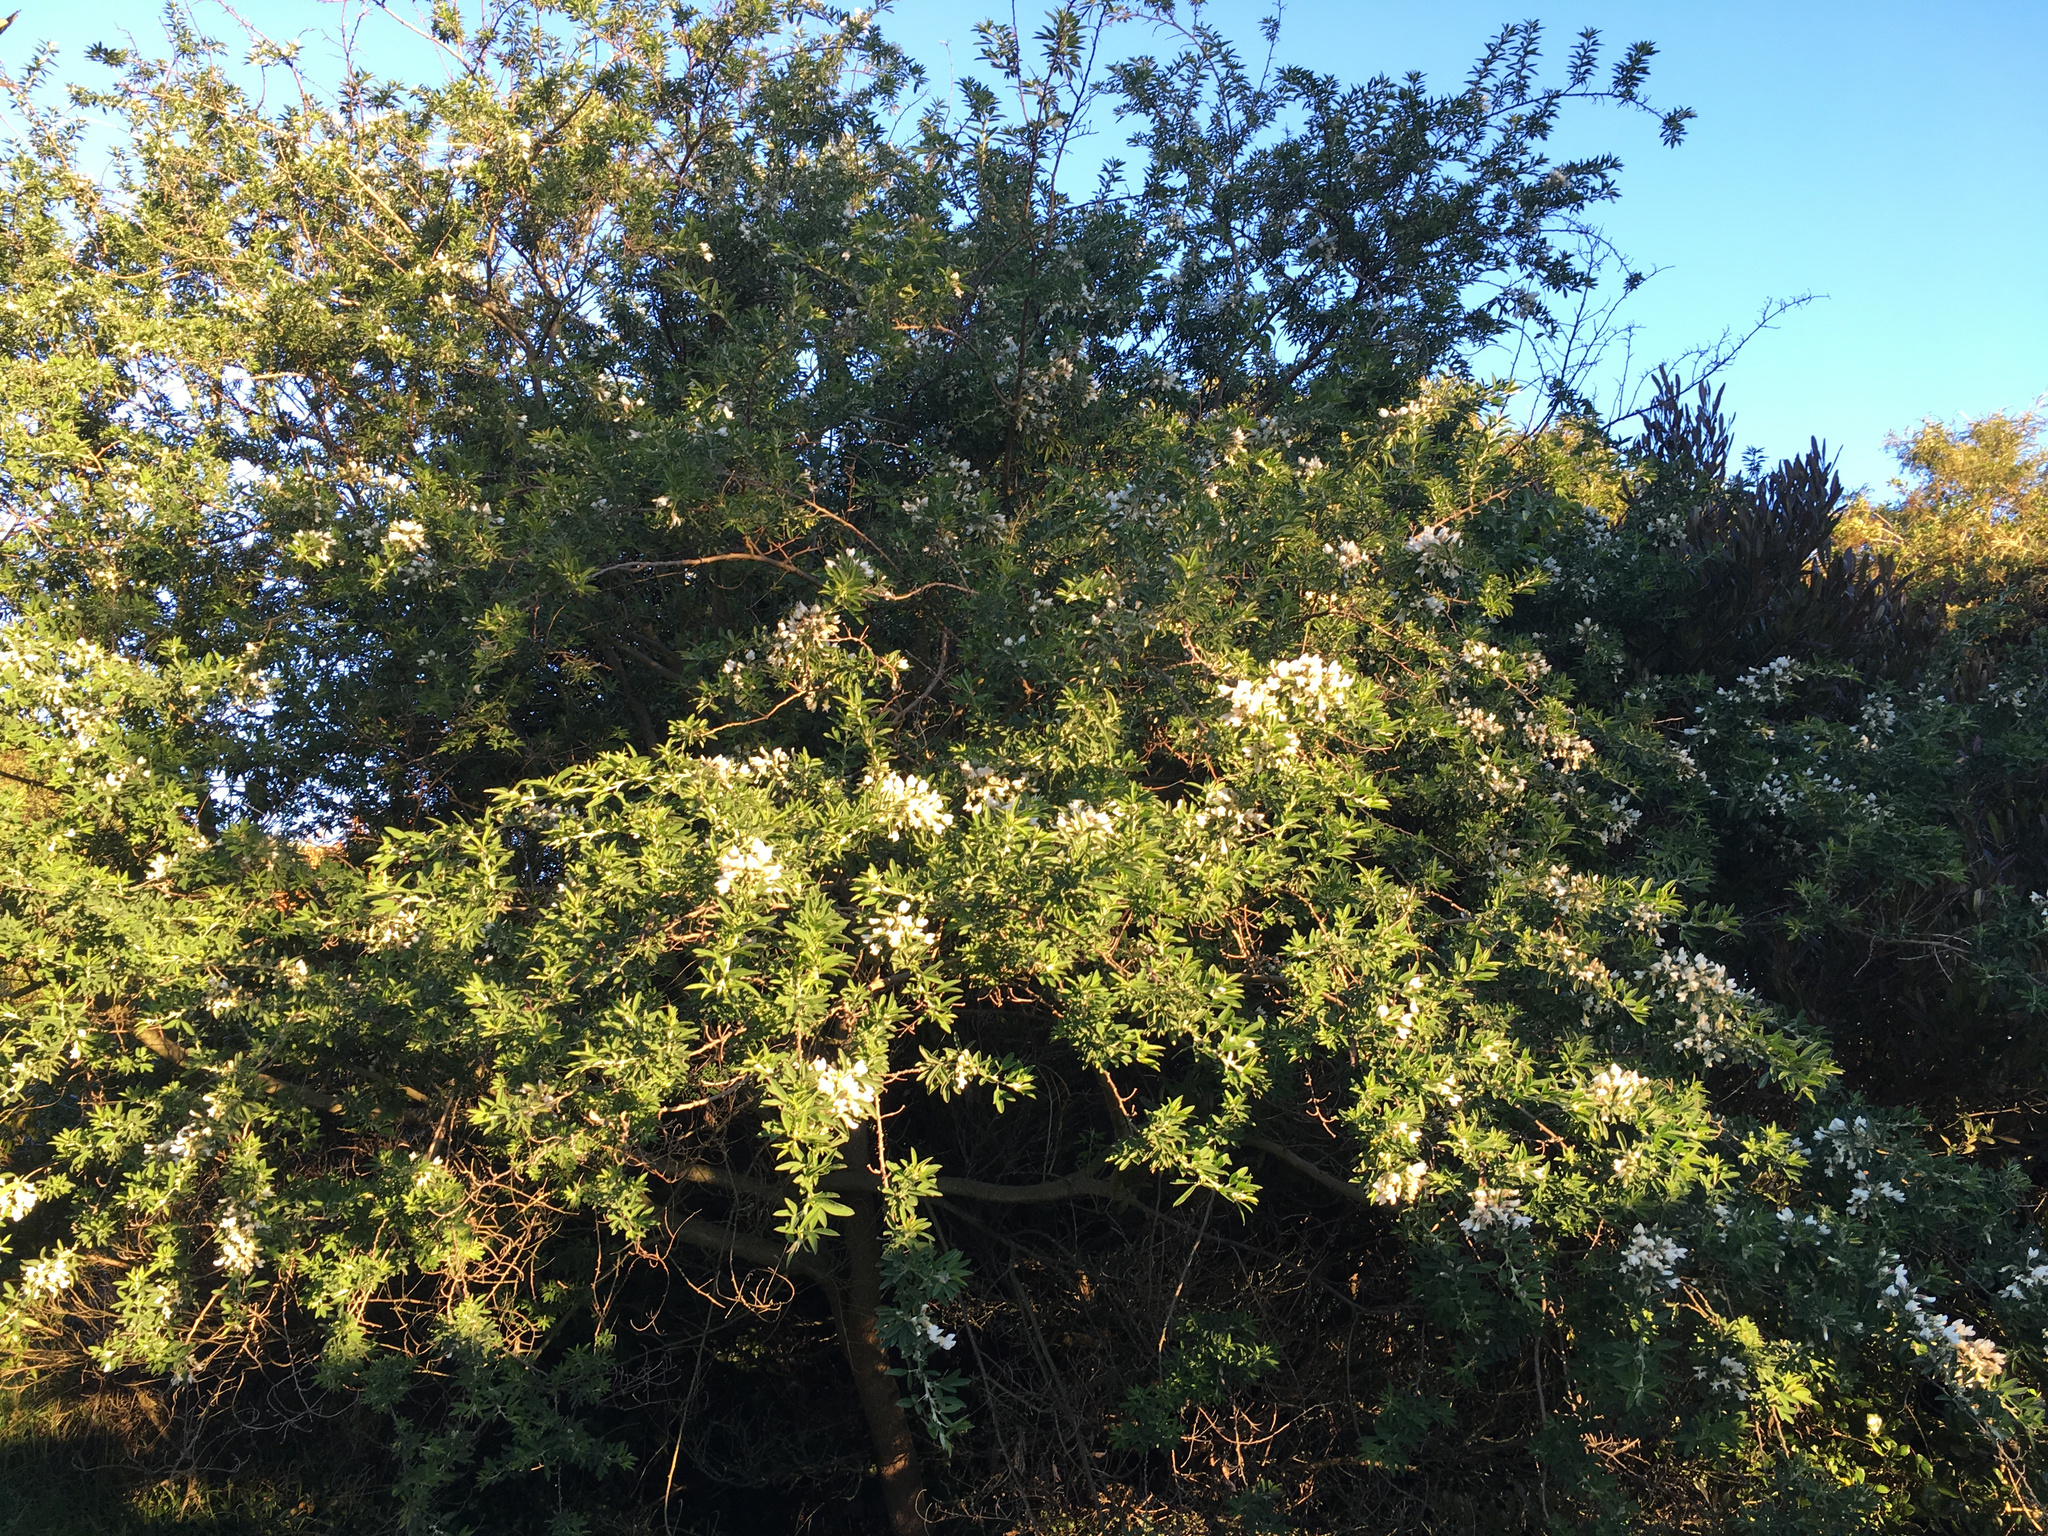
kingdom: Plantae
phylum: Tracheophyta
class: Magnoliopsida
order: Fabales
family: Fabaceae
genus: Chamaecytisus
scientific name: Chamaecytisus prolifer
